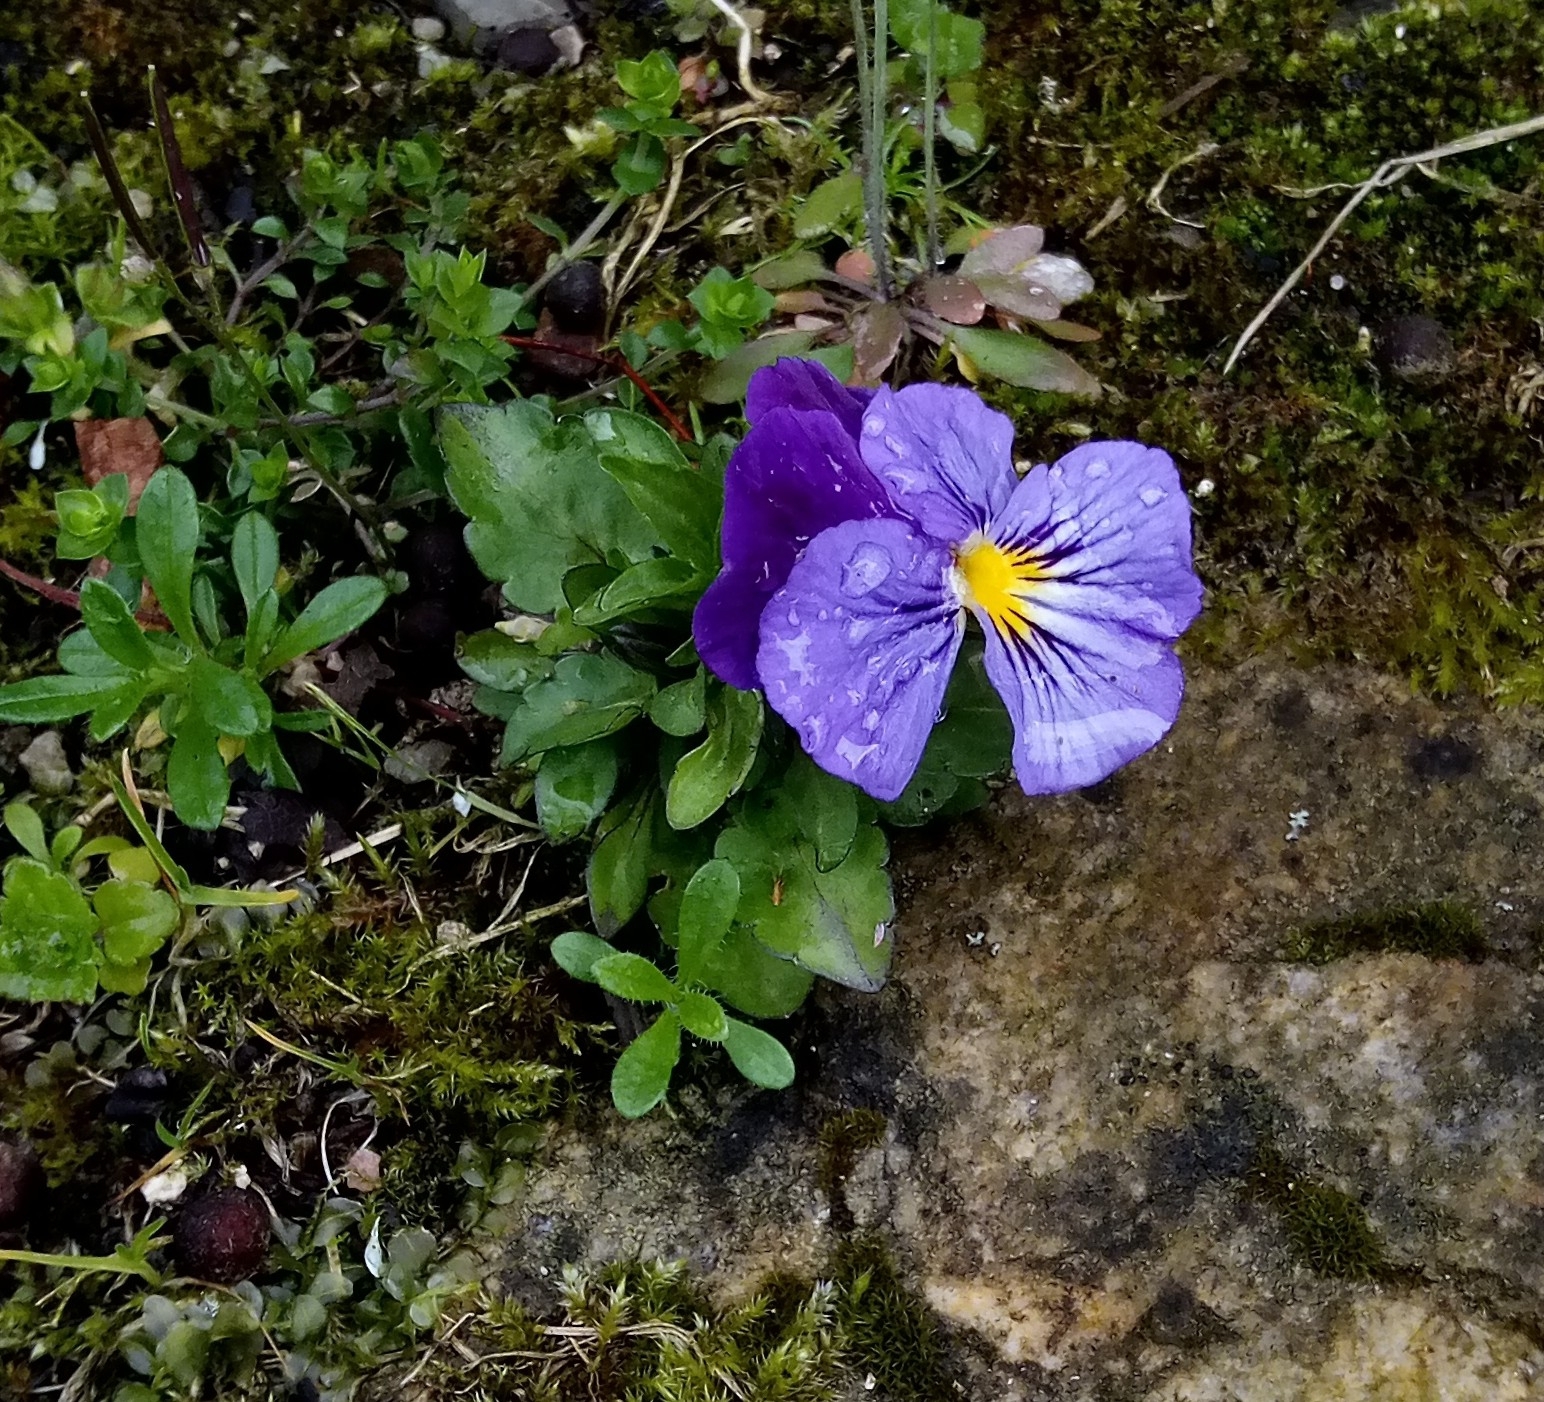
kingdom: Plantae
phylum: Tracheophyta
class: Magnoliopsida
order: Malpighiales
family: Violaceae
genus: Viola
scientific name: Viola wittrockiana
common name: Garden pansy
